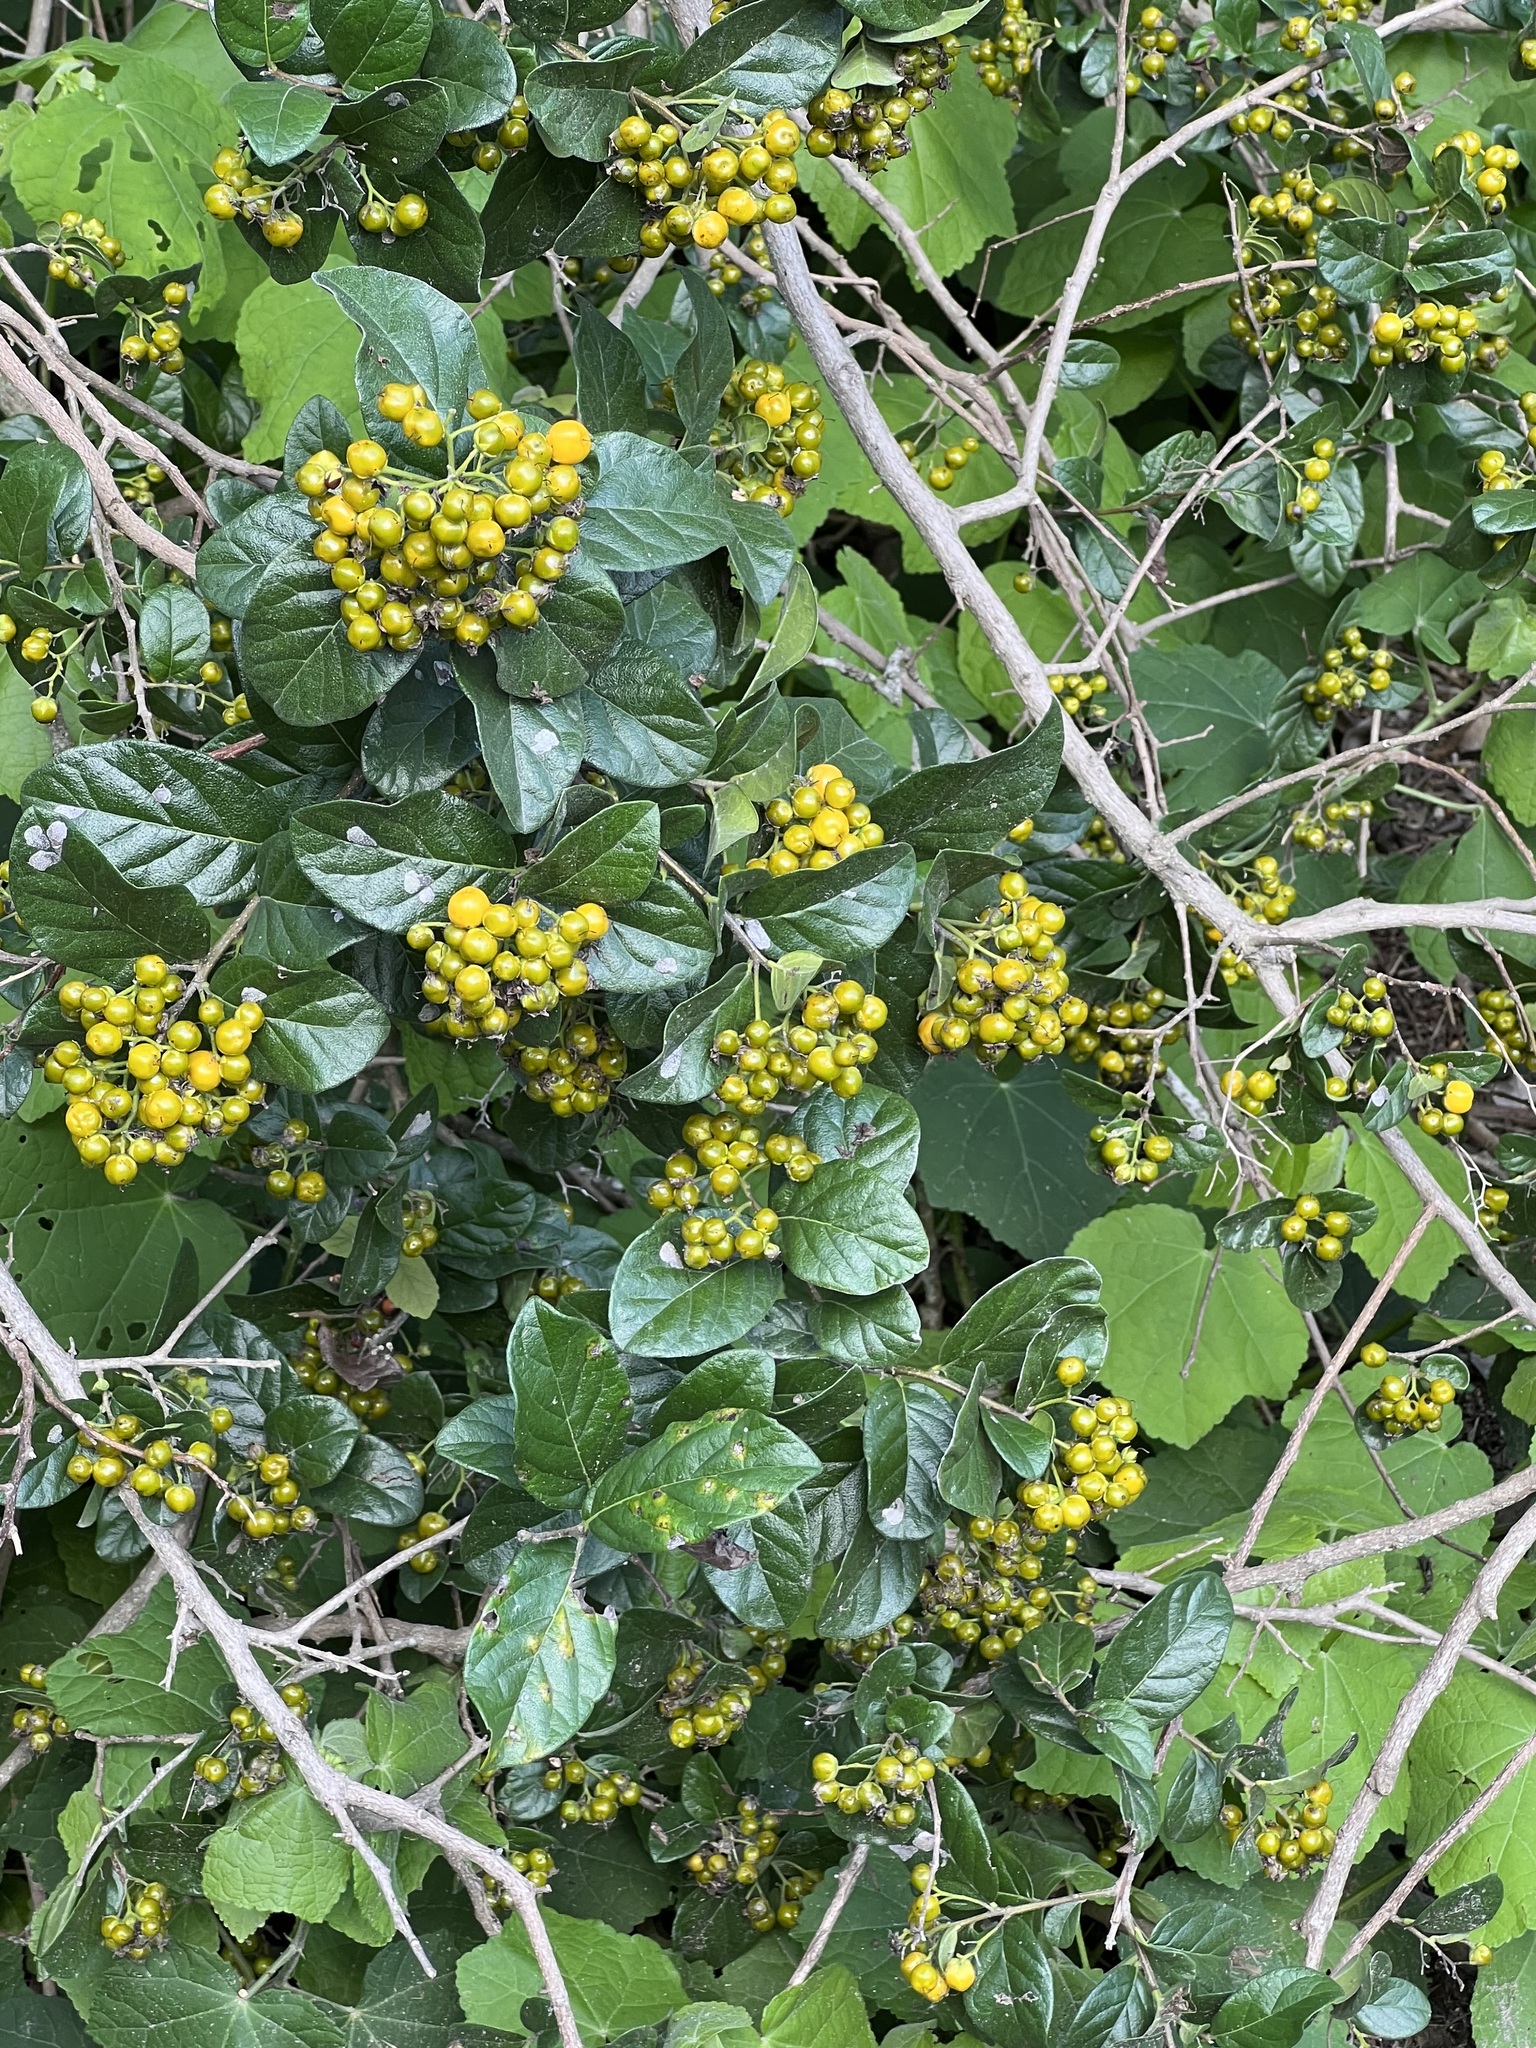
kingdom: Plantae
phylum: Tracheophyta
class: Magnoliopsida
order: Boraginales
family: Ehretiaceae
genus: Ehretia
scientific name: Ehretia anacua
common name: Sugarberry
